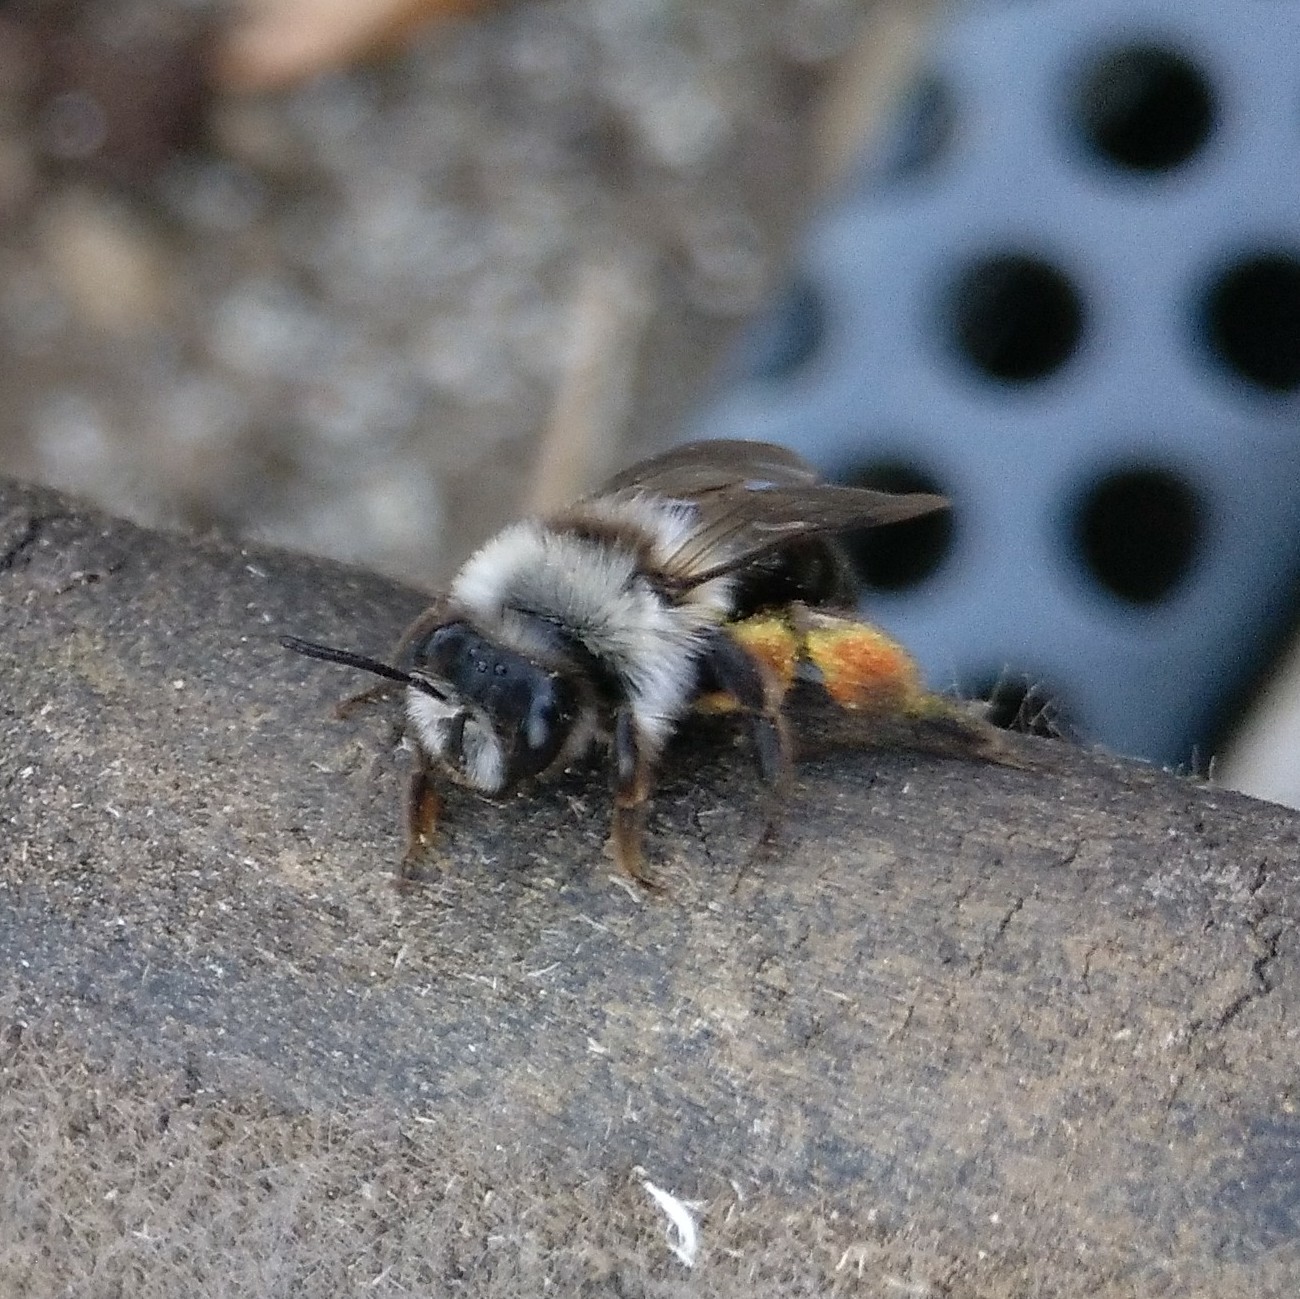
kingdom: Animalia
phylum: Arthropoda
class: Insecta
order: Hymenoptera
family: Andrenidae
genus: Andrena
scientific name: Andrena vaga
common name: Grey-backed mining bee
